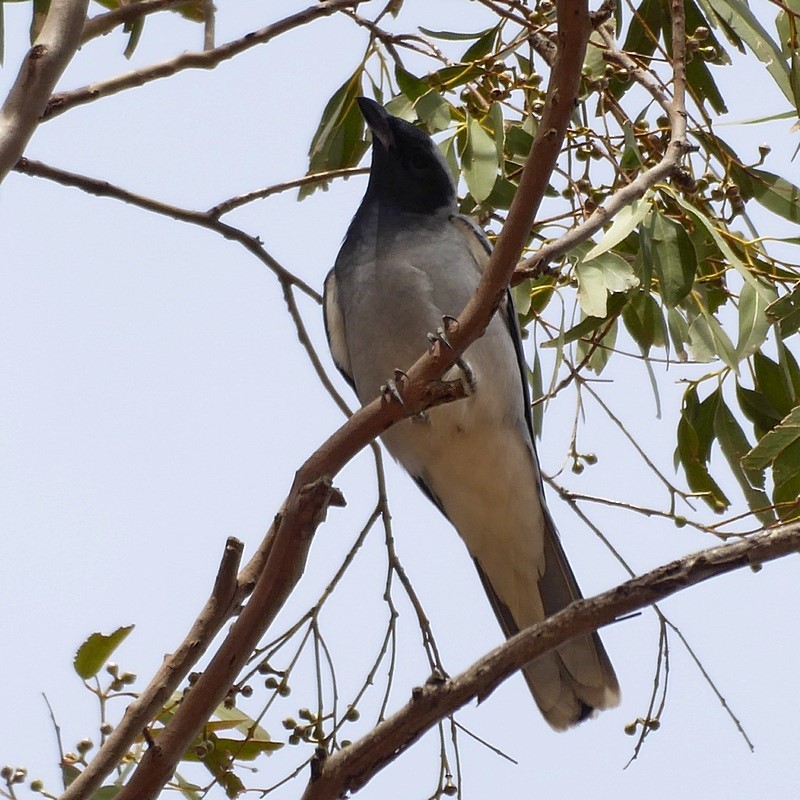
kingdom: Animalia
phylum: Chordata
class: Aves
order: Passeriformes
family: Campephagidae
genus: Coracina
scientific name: Coracina novaehollandiae
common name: Black-faced cuckooshrike
